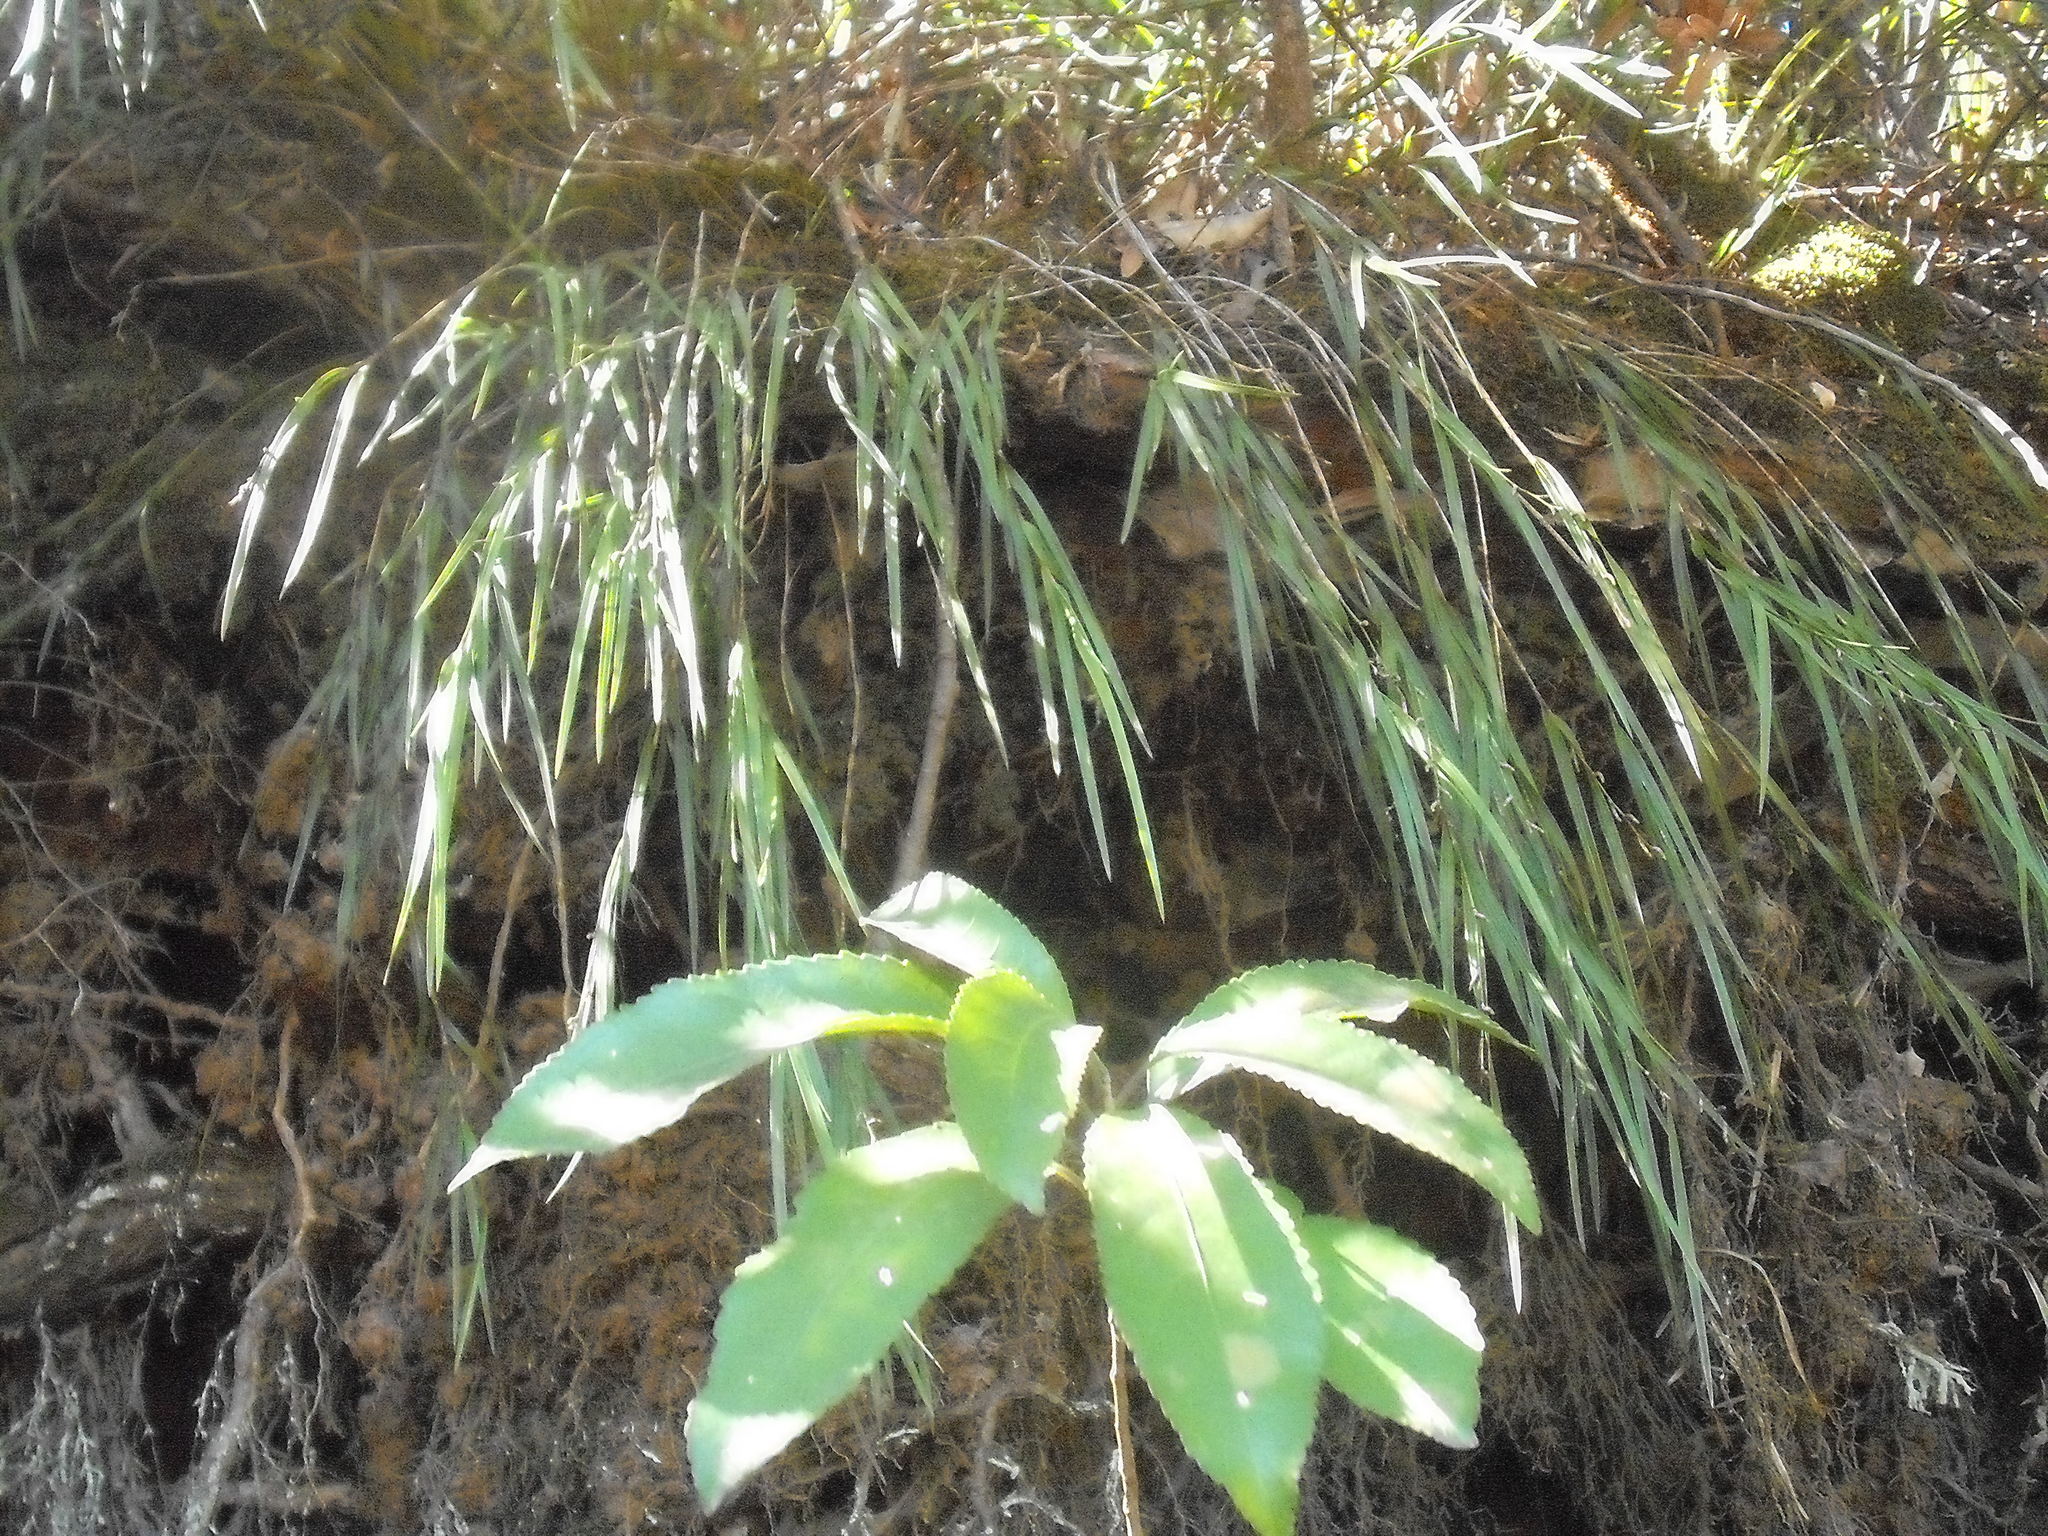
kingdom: Plantae
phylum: Tracheophyta
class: Liliopsida
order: Asparagales
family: Orchidaceae
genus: Earina
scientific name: Earina mucronata
